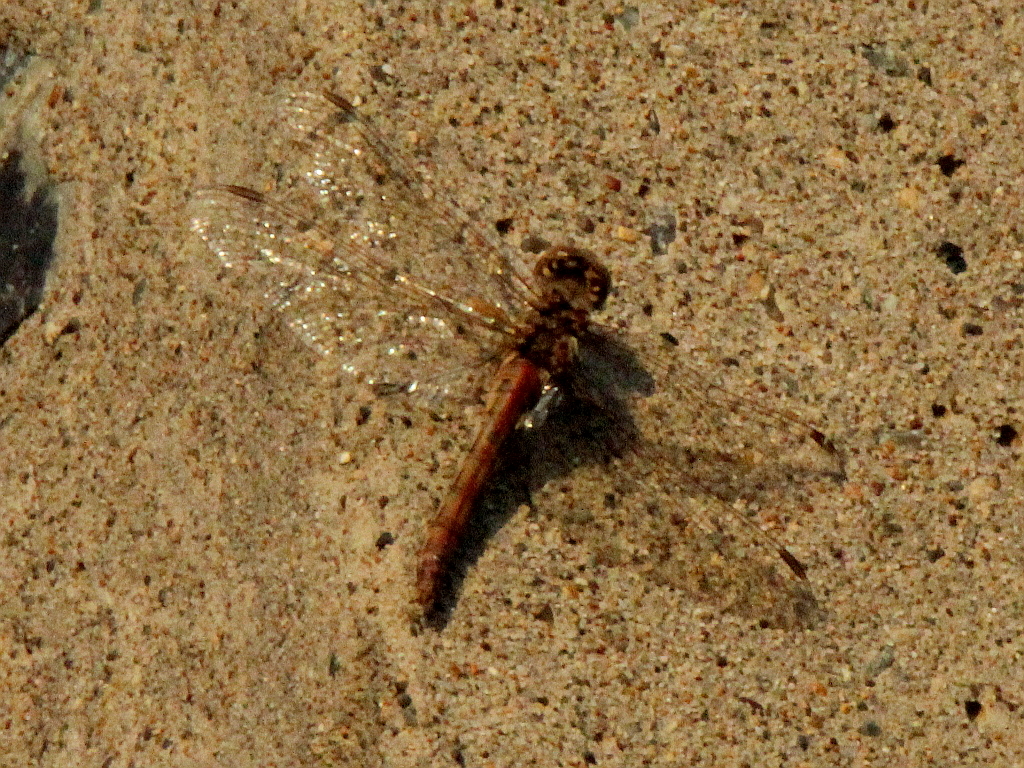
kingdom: Animalia
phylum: Arthropoda
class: Insecta
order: Odonata
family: Libellulidae
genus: Sympetrum
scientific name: Sympetrum vulgatum
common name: Vagrant darter
